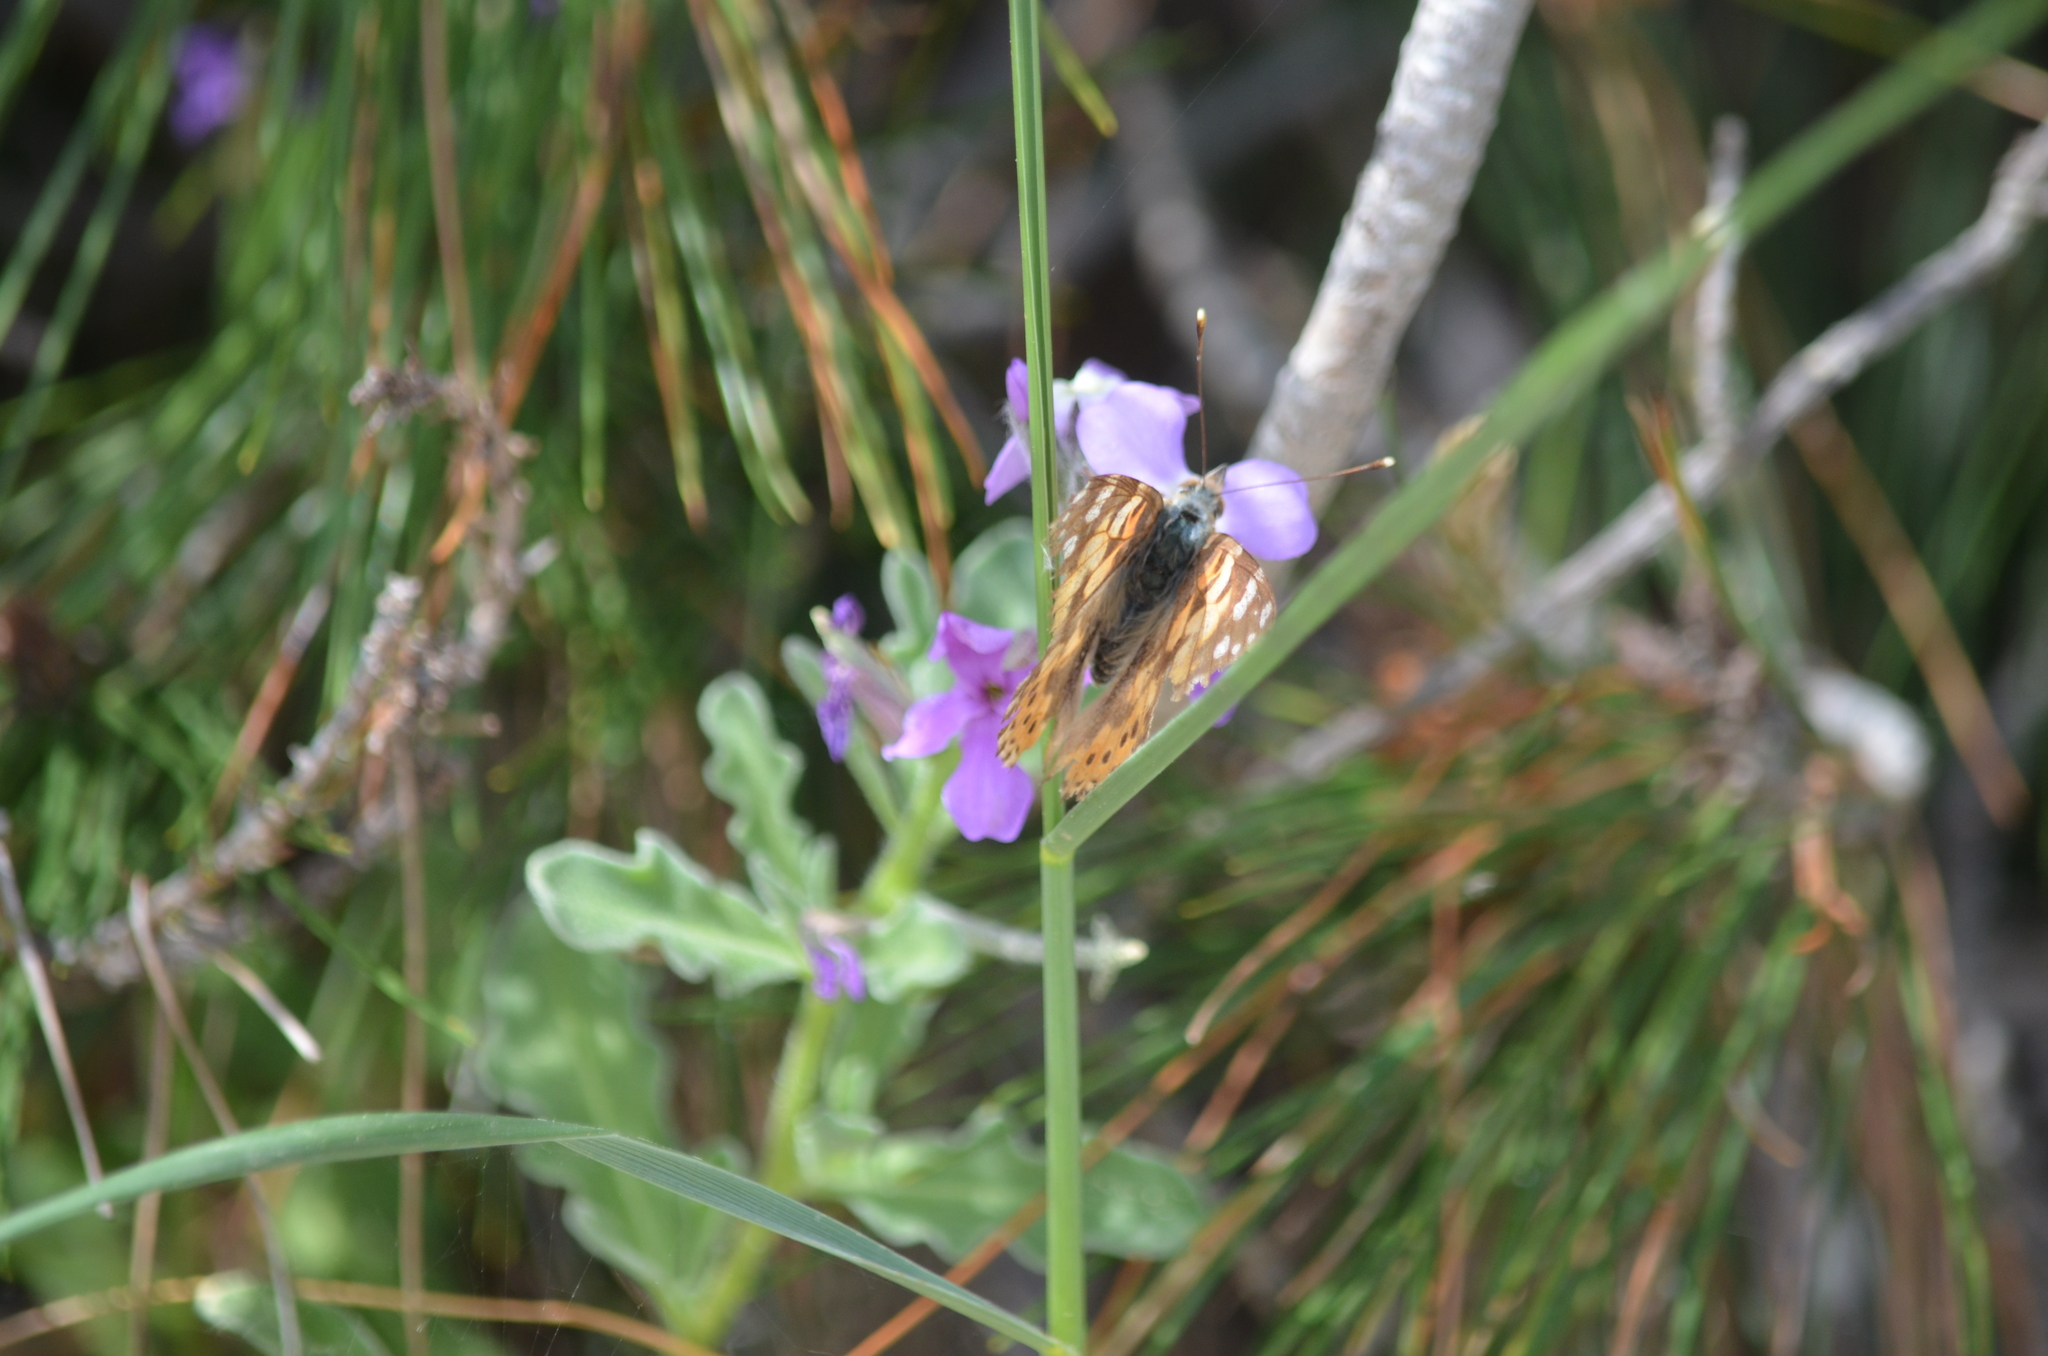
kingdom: Animalia
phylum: Arthropoda
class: Insecta
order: Lepidoptera
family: Nymphalidae
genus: Vanessa
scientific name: Vanessa cardui
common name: Painted lady
